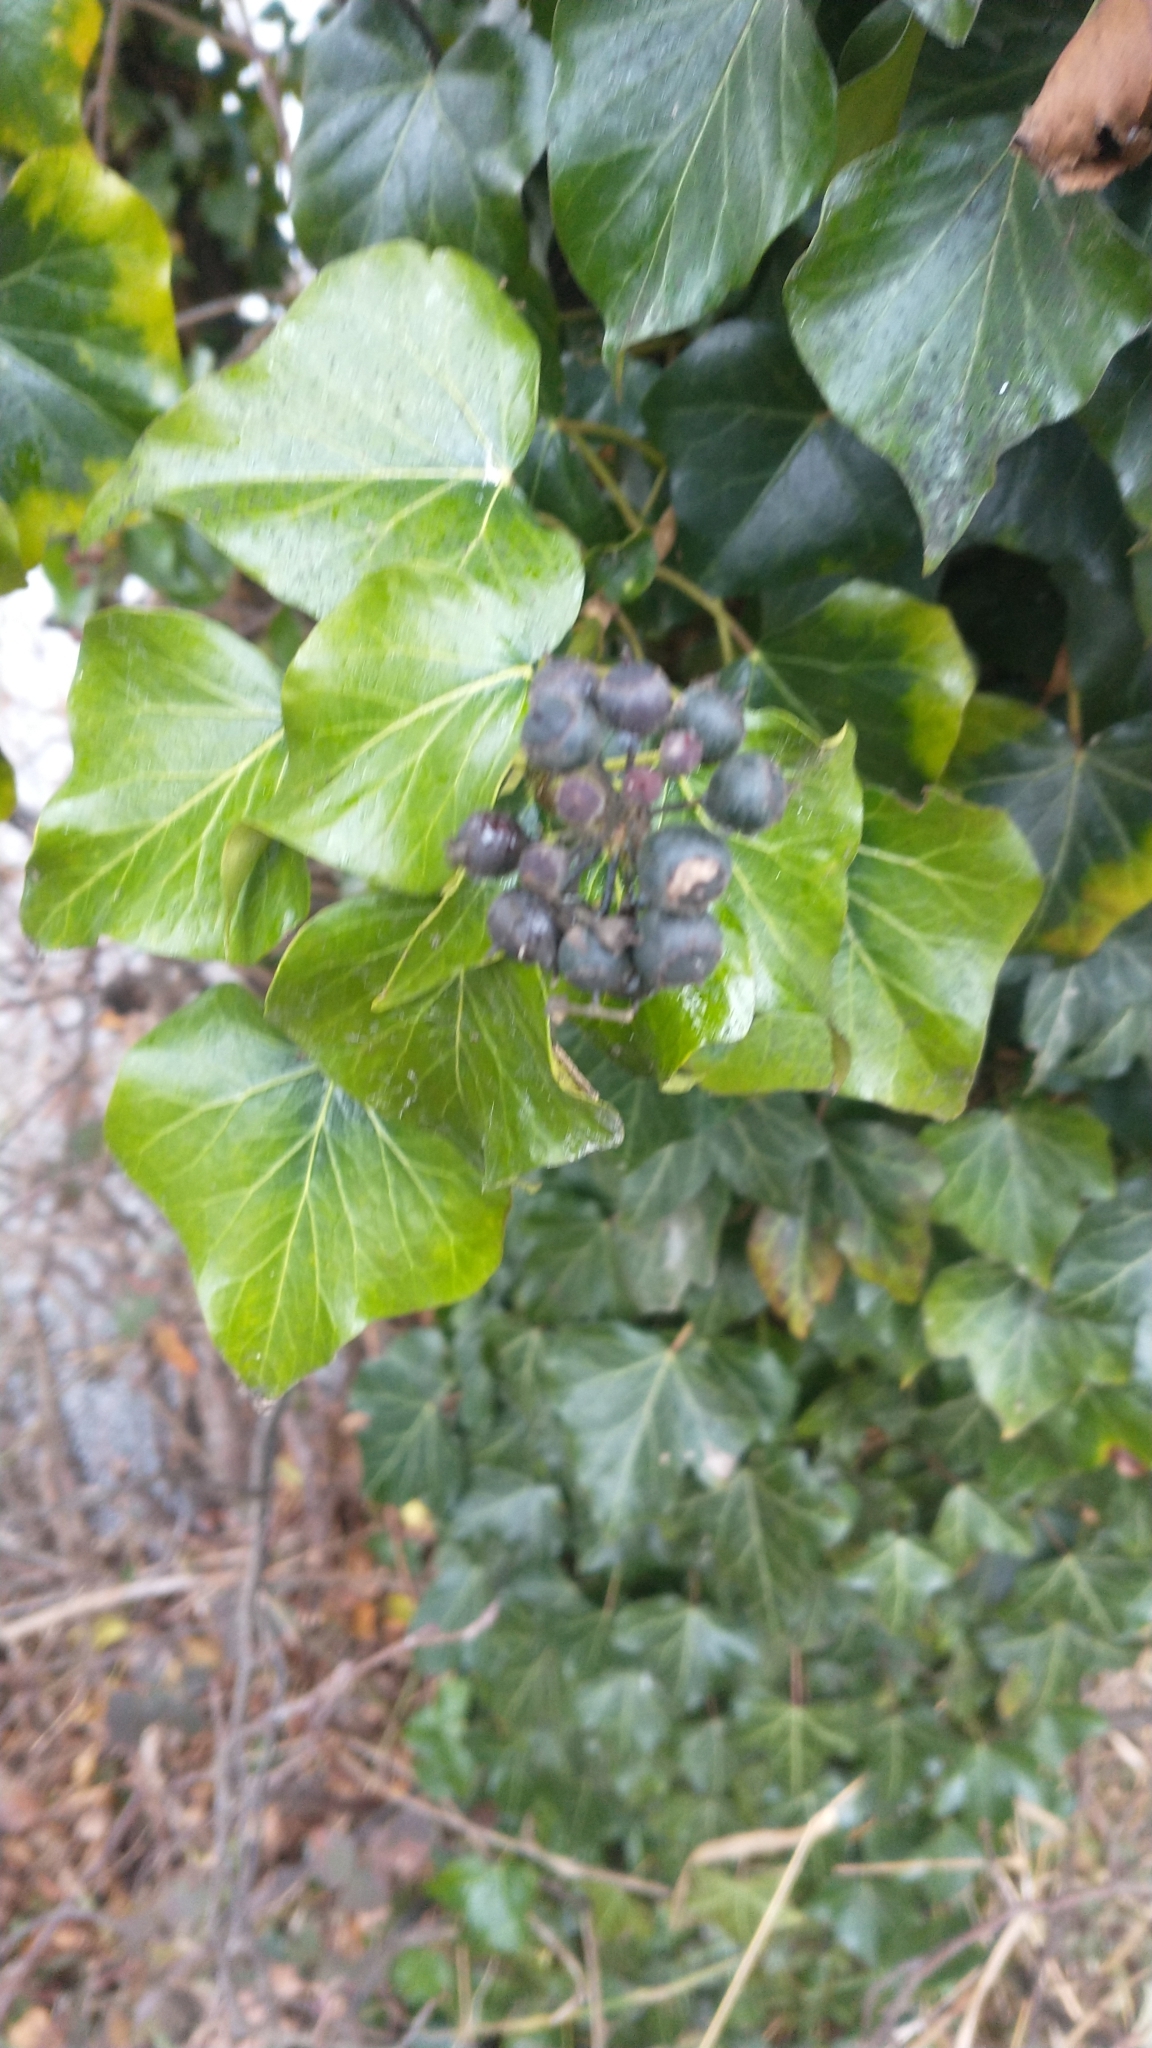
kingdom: Plantae
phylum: Tracheophyta
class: Magnoliopsida
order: Apiales
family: Araliaceae
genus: Hedera
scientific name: Hedera helix
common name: Ivy
